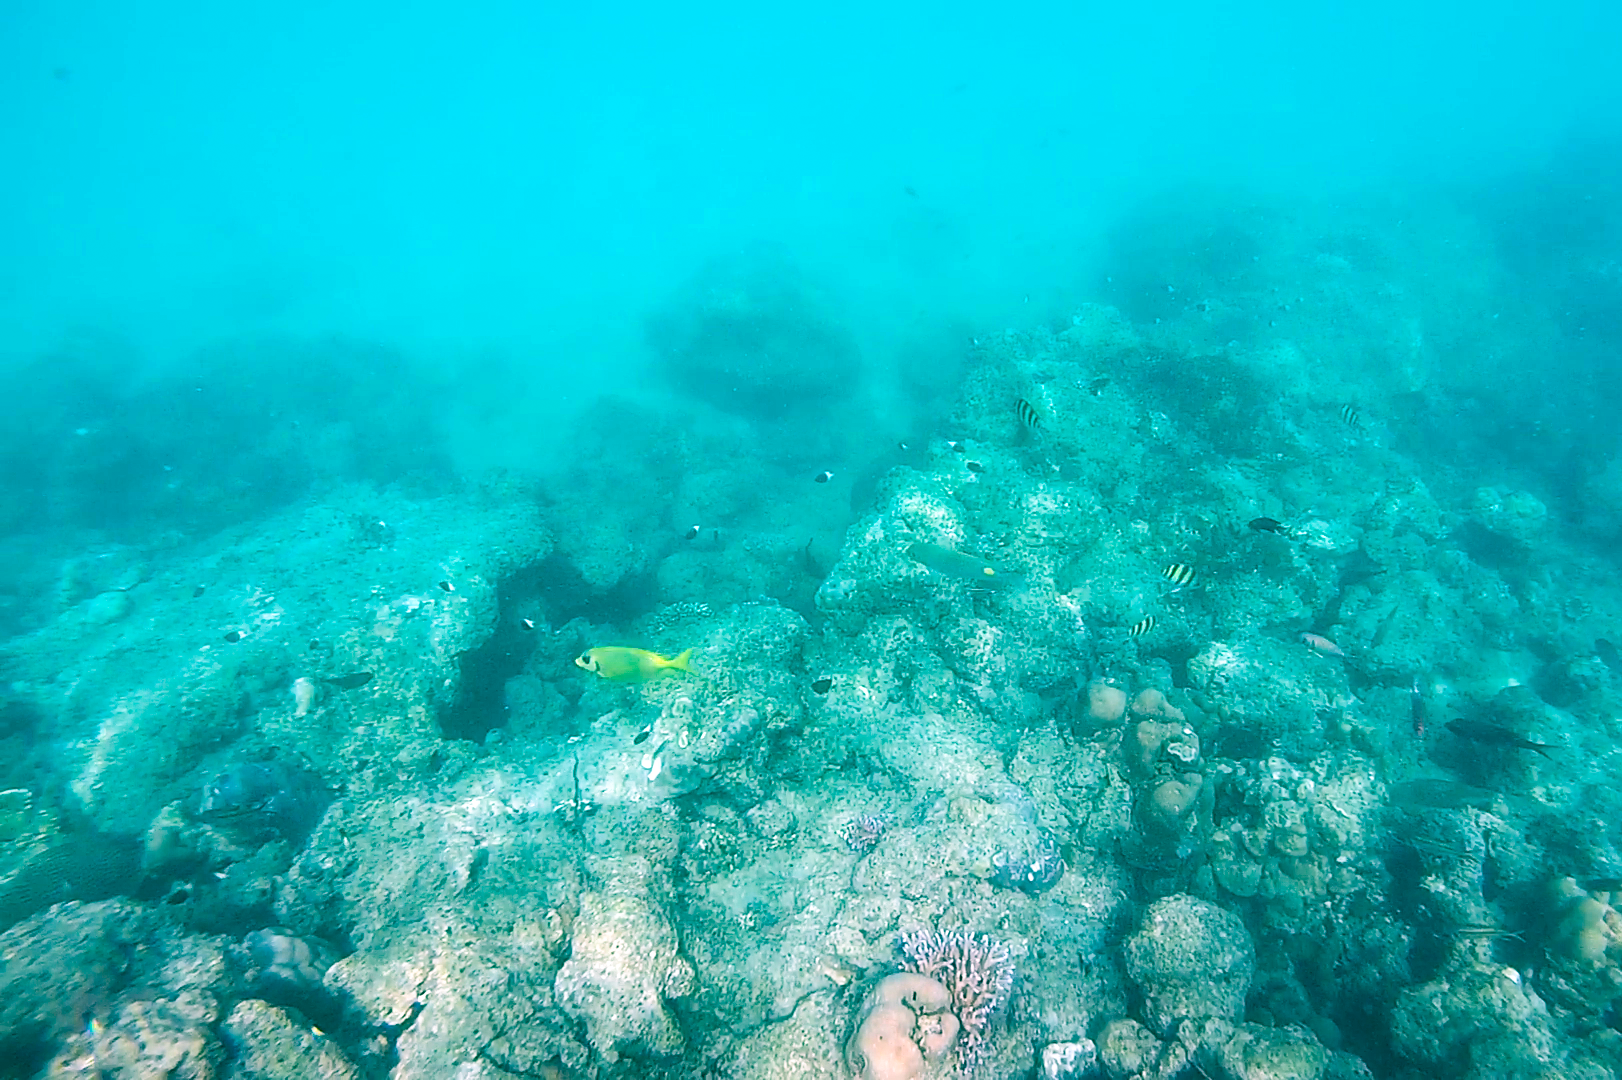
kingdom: Animalia
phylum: Chordata
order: Perciformes
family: Siganidae
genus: Siganus
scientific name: Siganus corallinus
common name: Coral rabbitfish
